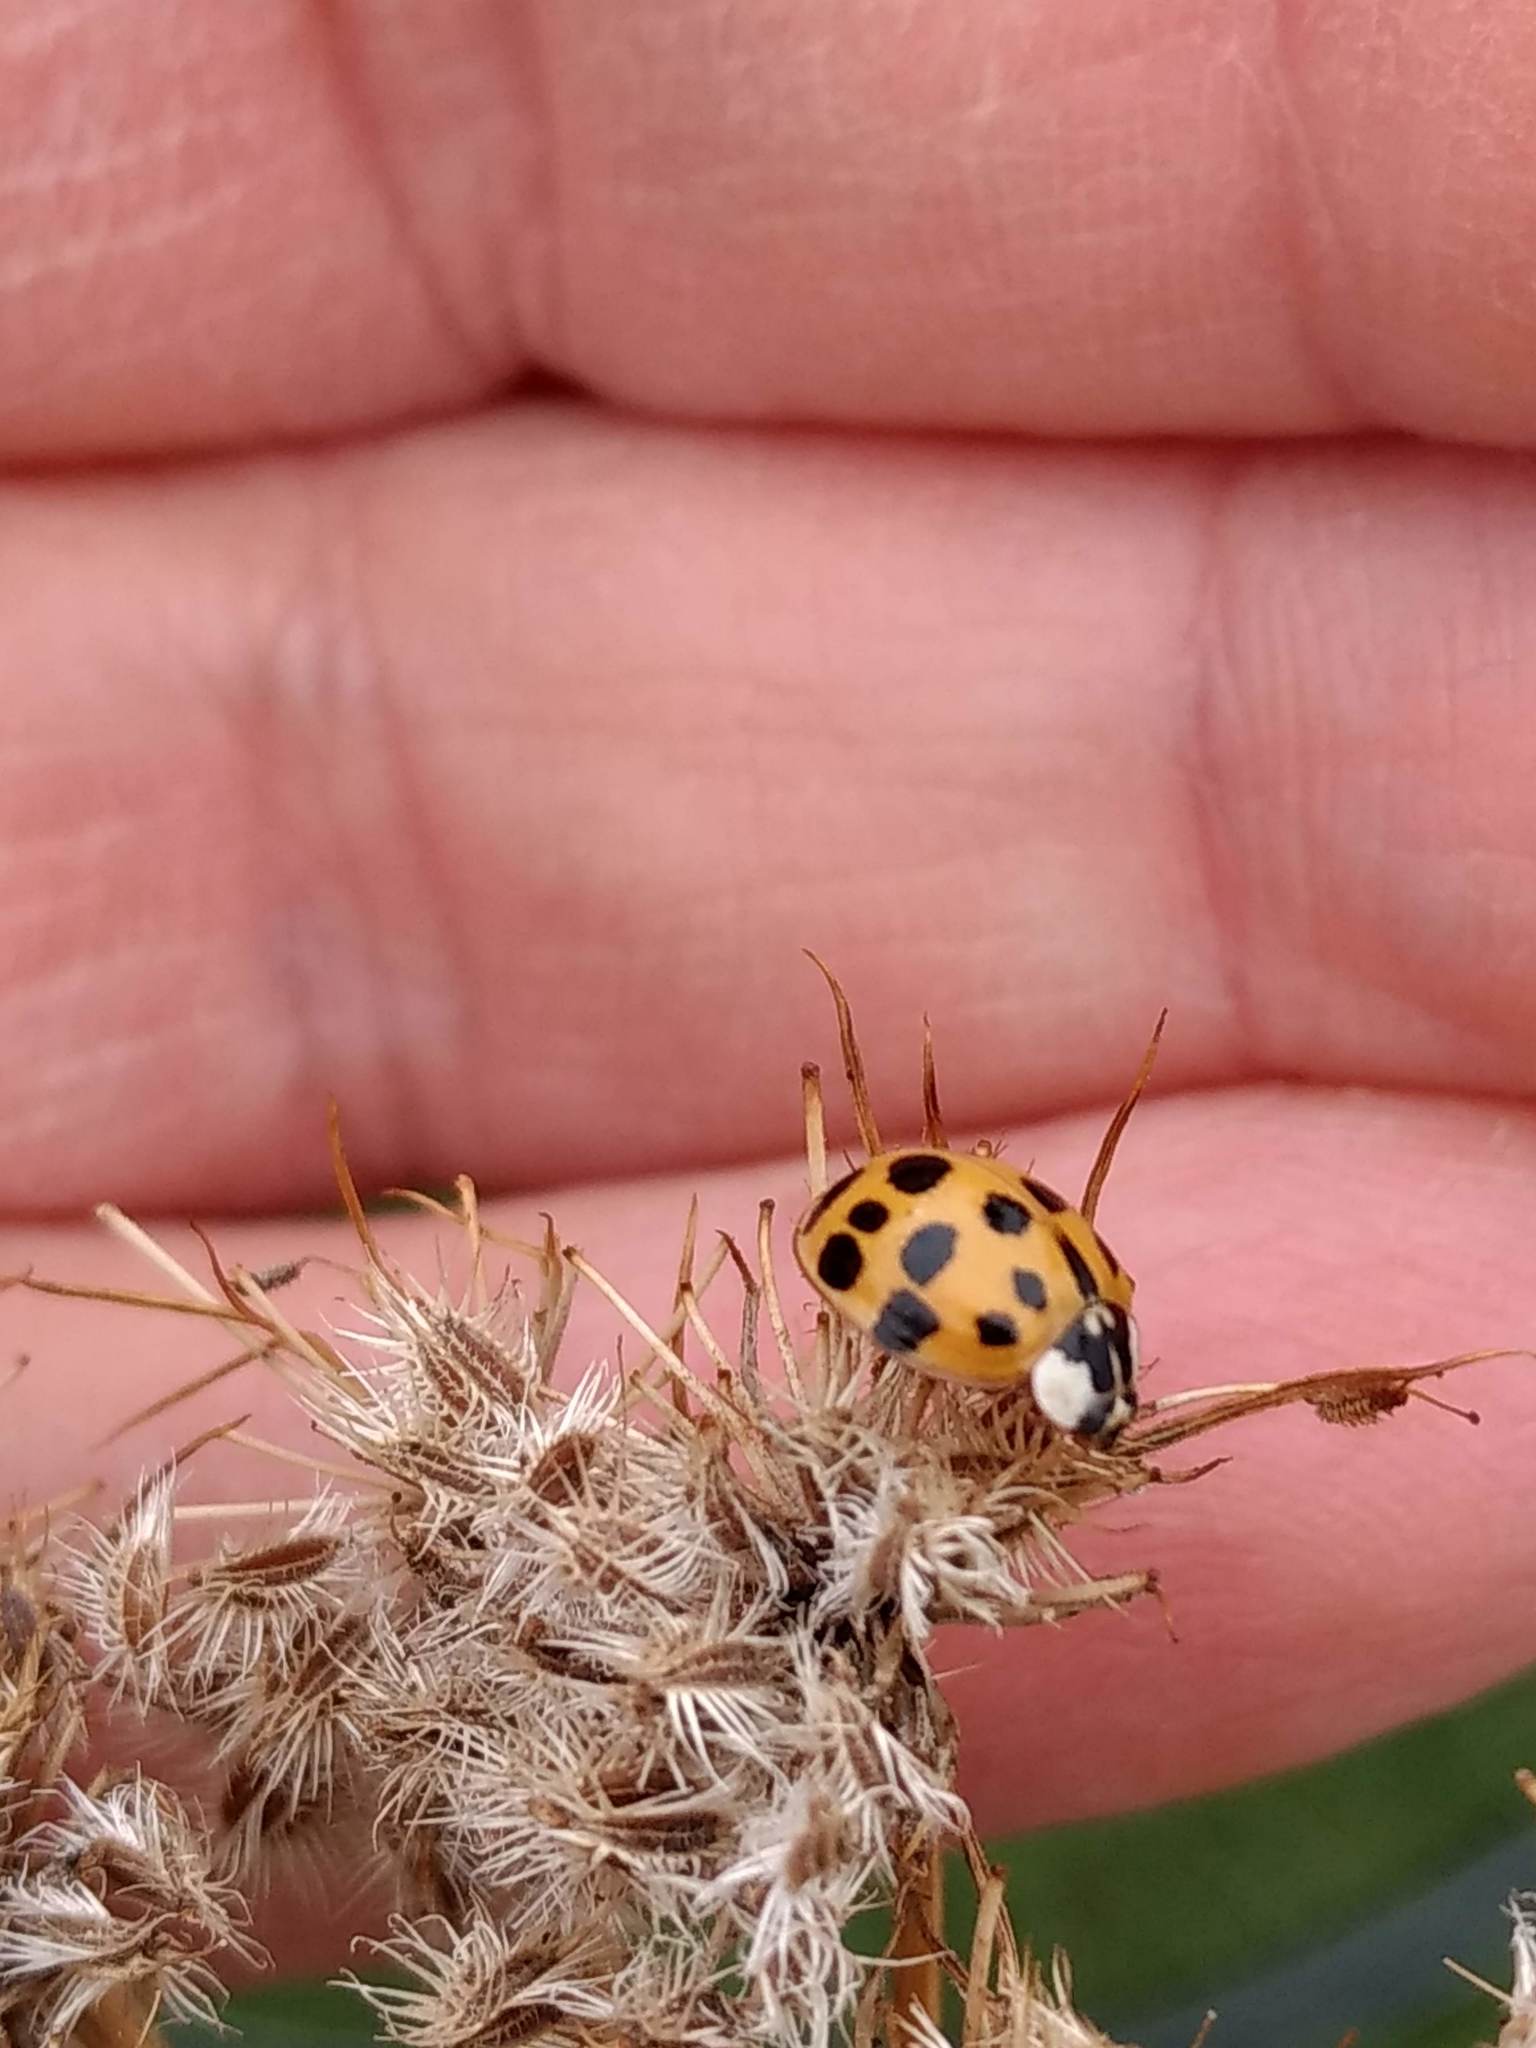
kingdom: Animalia
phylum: Arthropoda
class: Insecta
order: Coleoptera
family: Coccinellidae
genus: Harmonia
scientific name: Harmonia axyridis
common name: Harlequin ladybird
